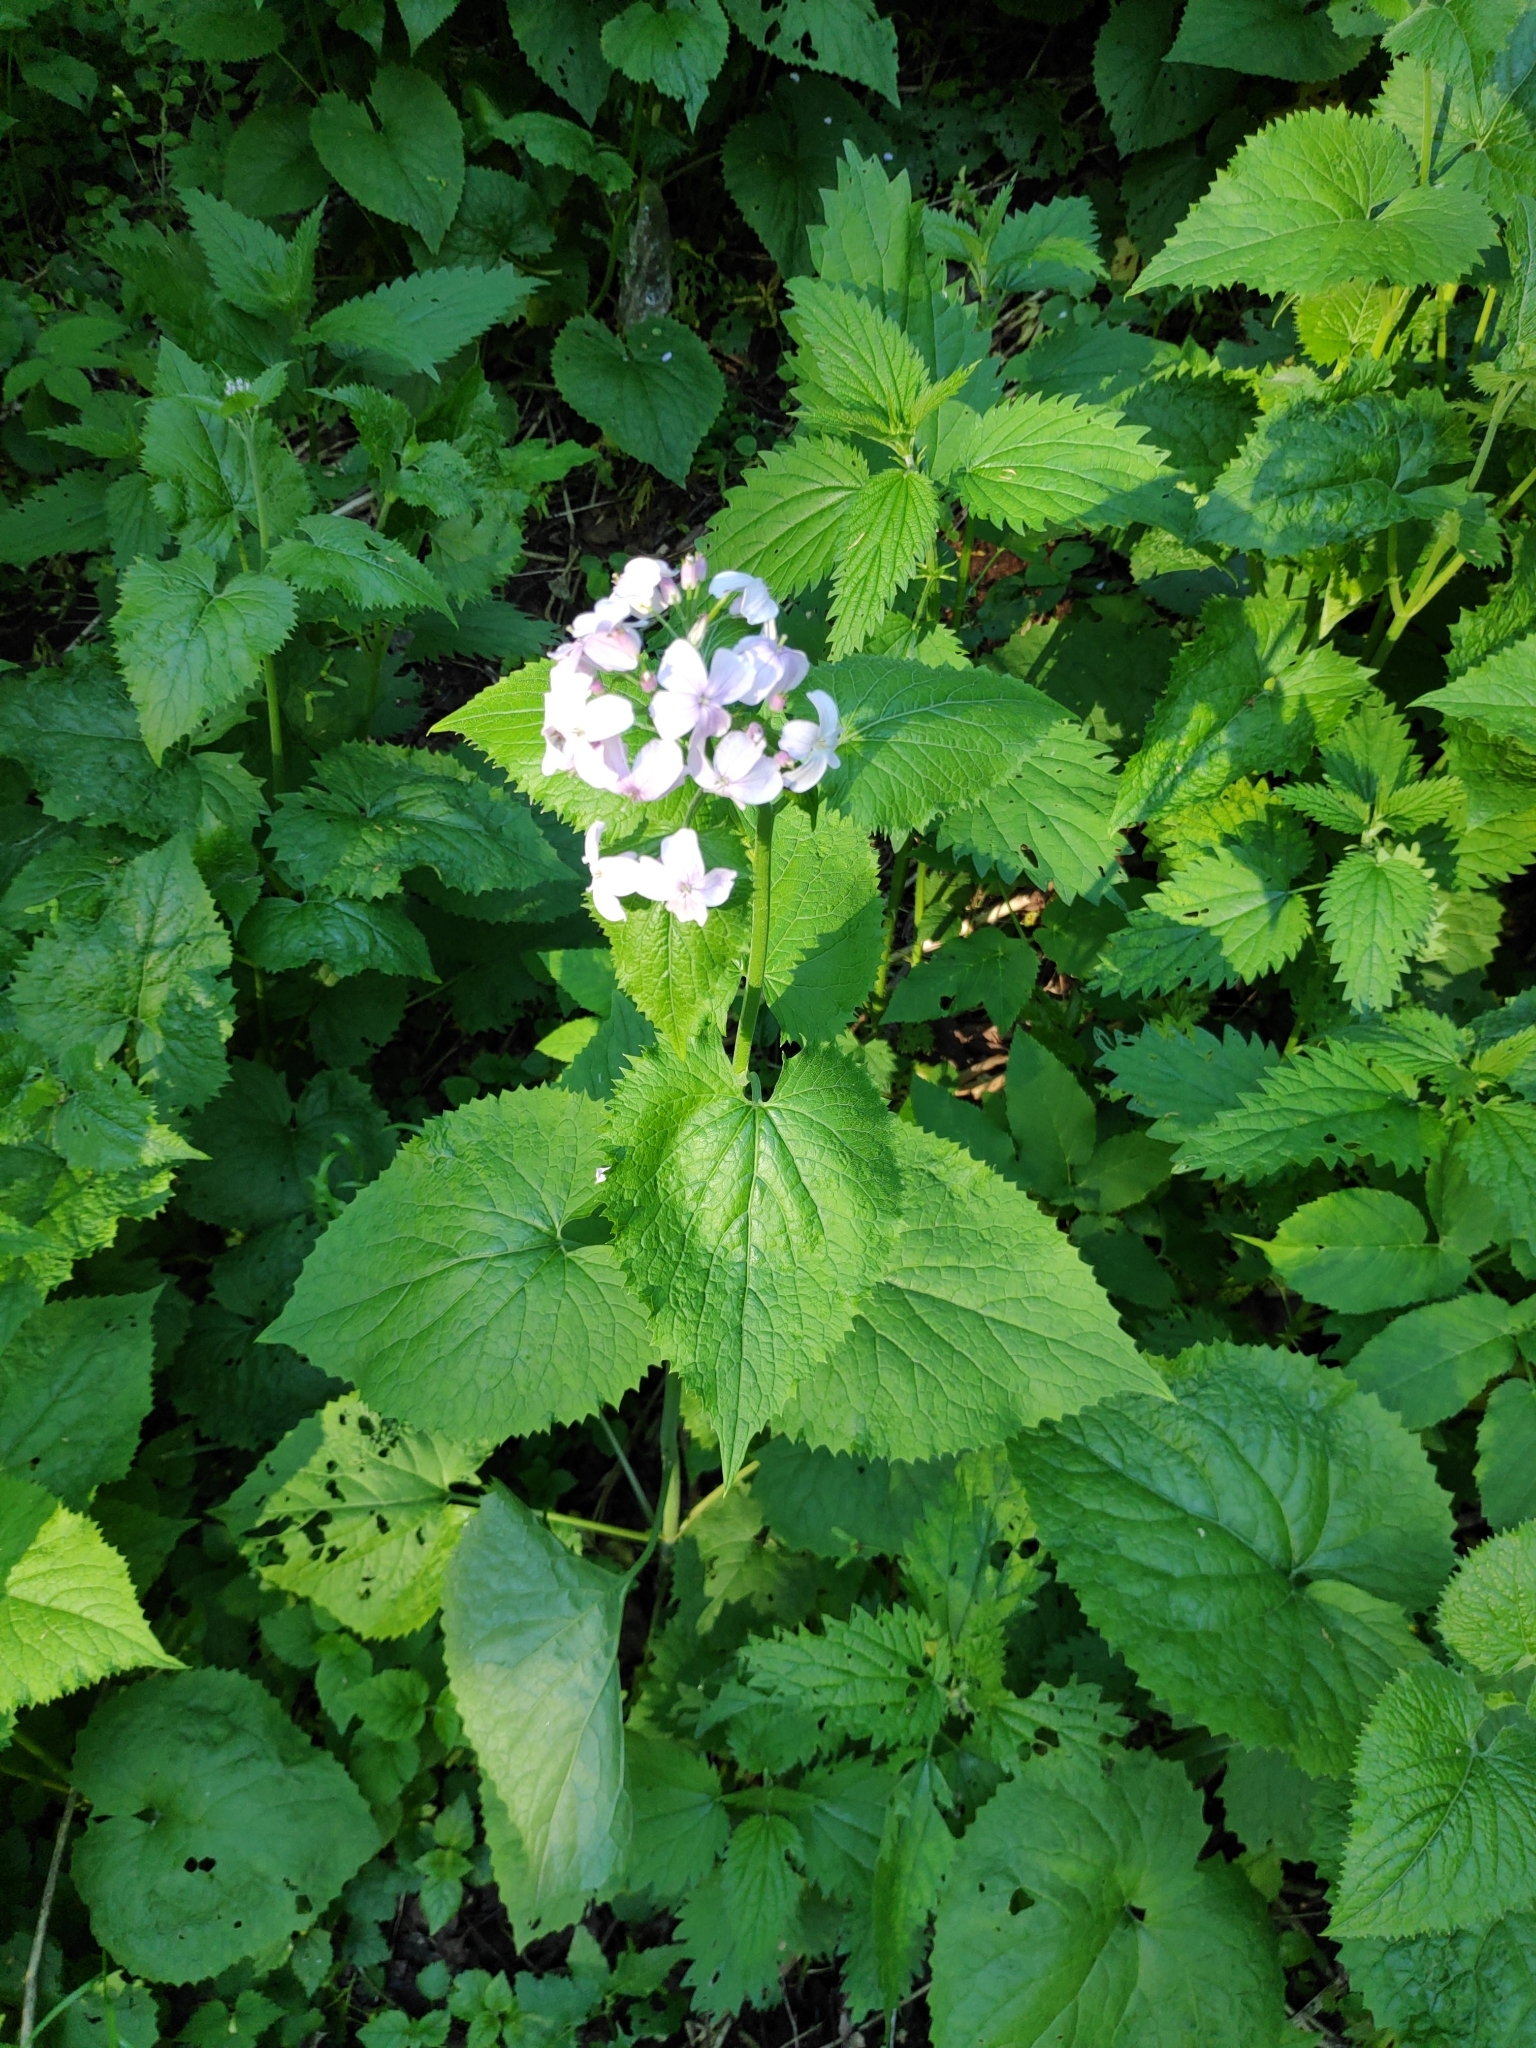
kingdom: Plantae
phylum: Tracheophyta
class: Magnoliopsida
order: Brassicales
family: Brassicaceae
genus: Lunaria
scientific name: Lunaria rediviva
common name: Perennial honesty
